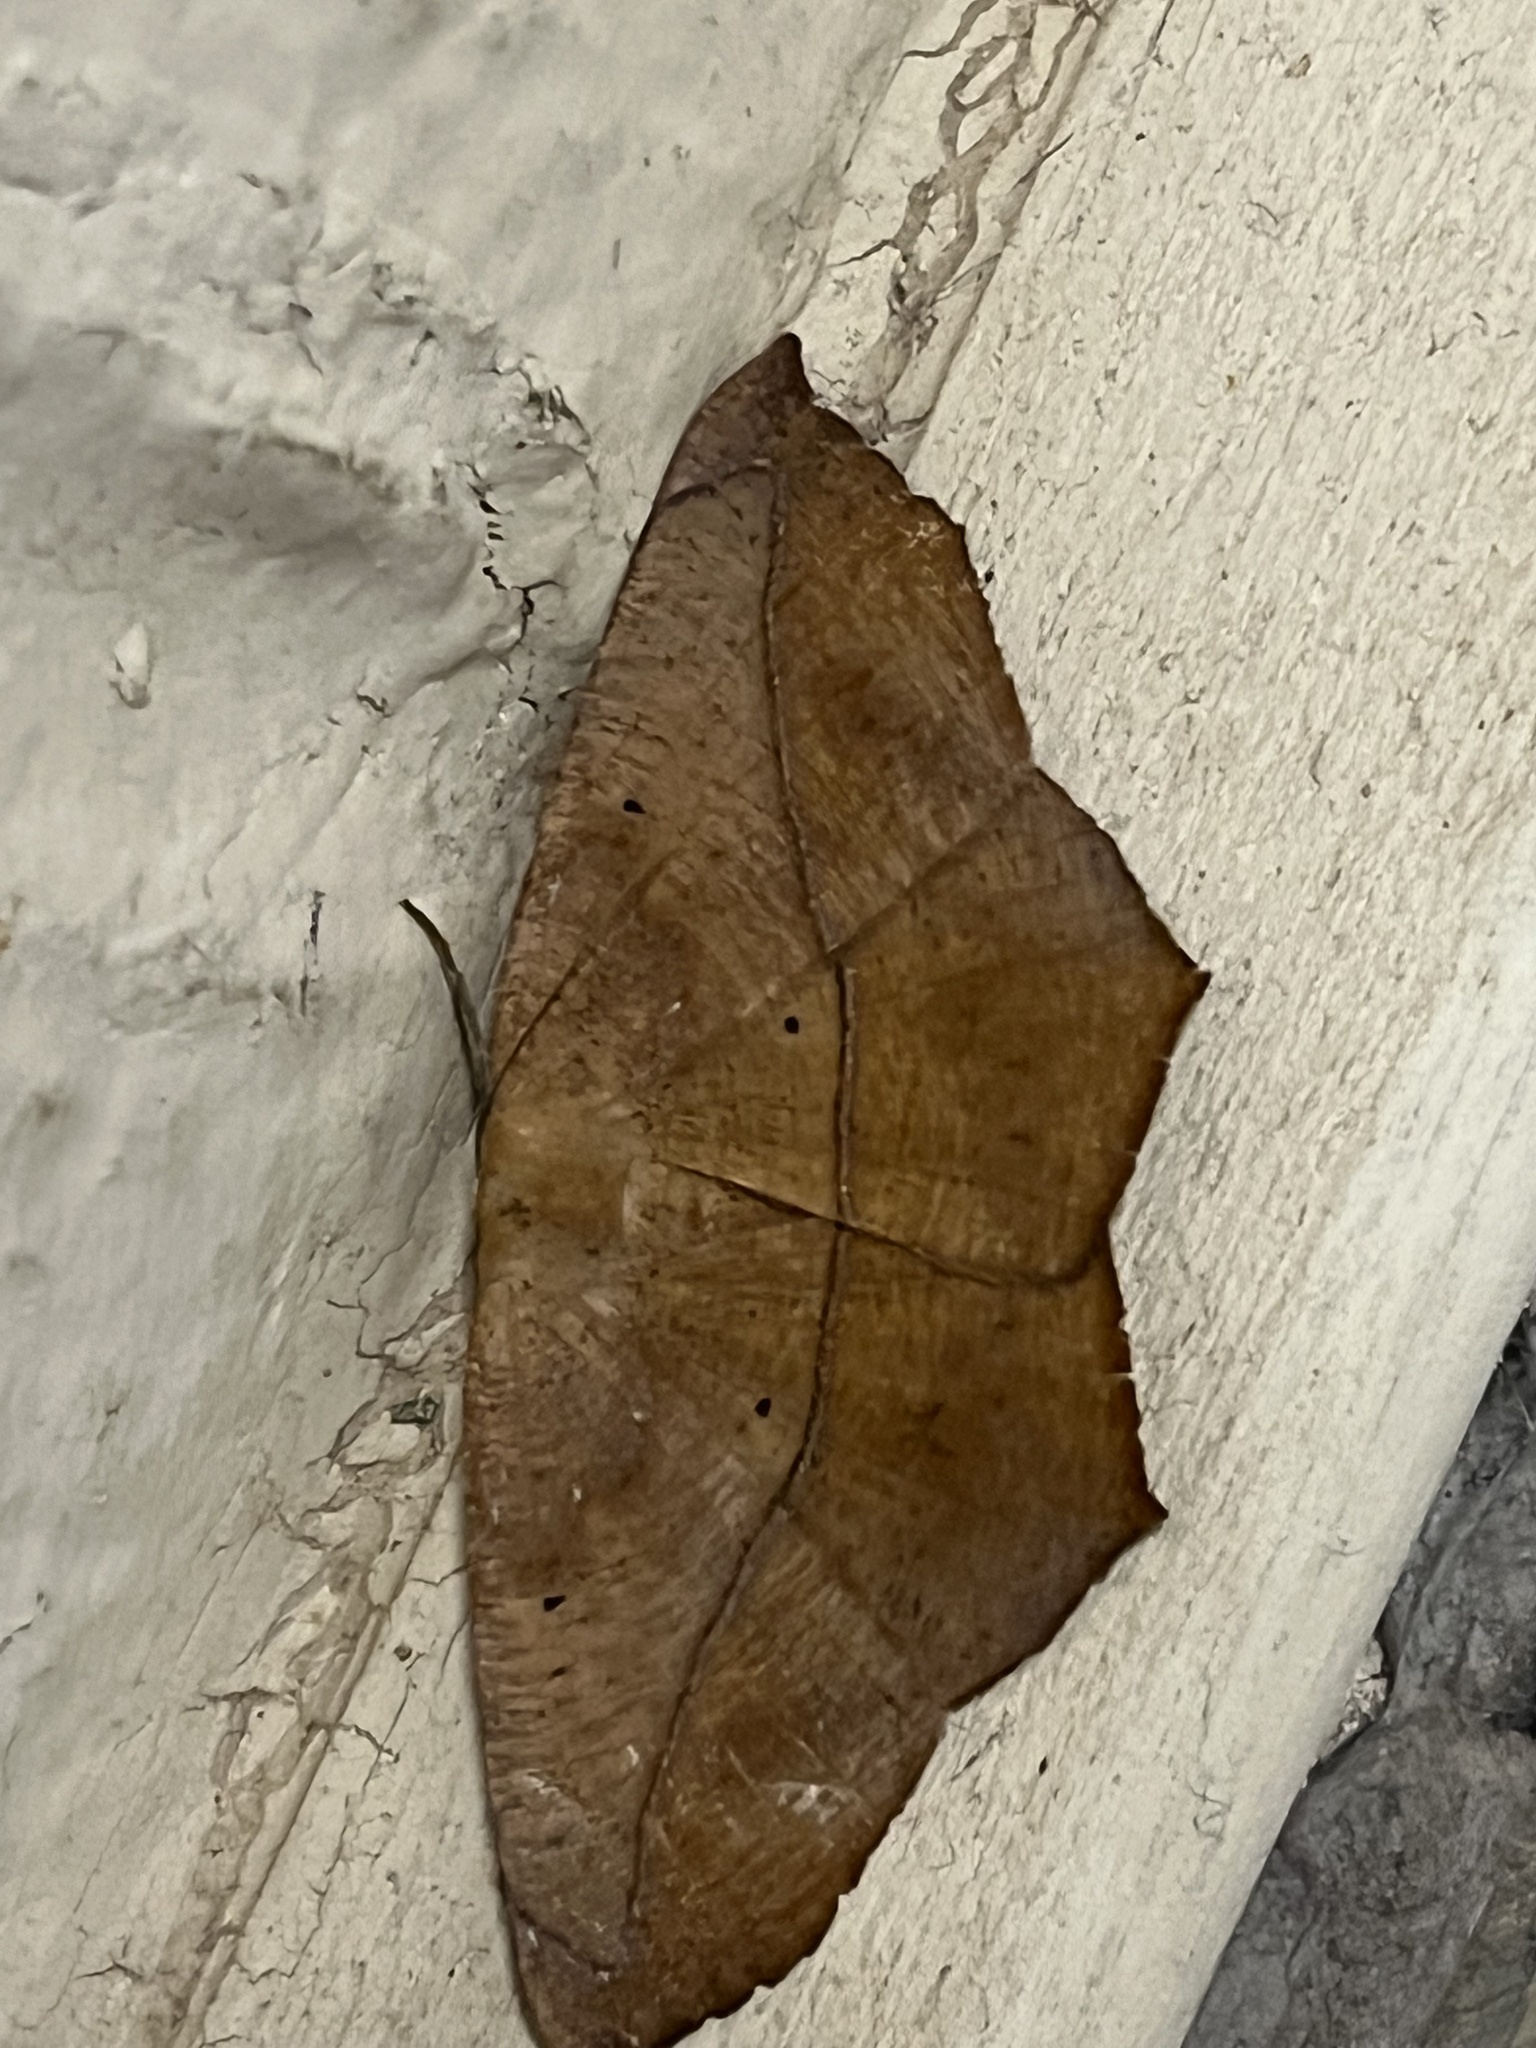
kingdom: Animalia
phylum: Arthropoda
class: Insecta
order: Lepidoptera
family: Geometridae
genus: Prochoerodes
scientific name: Prochoerodes lineola
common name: Large maple spanworm
